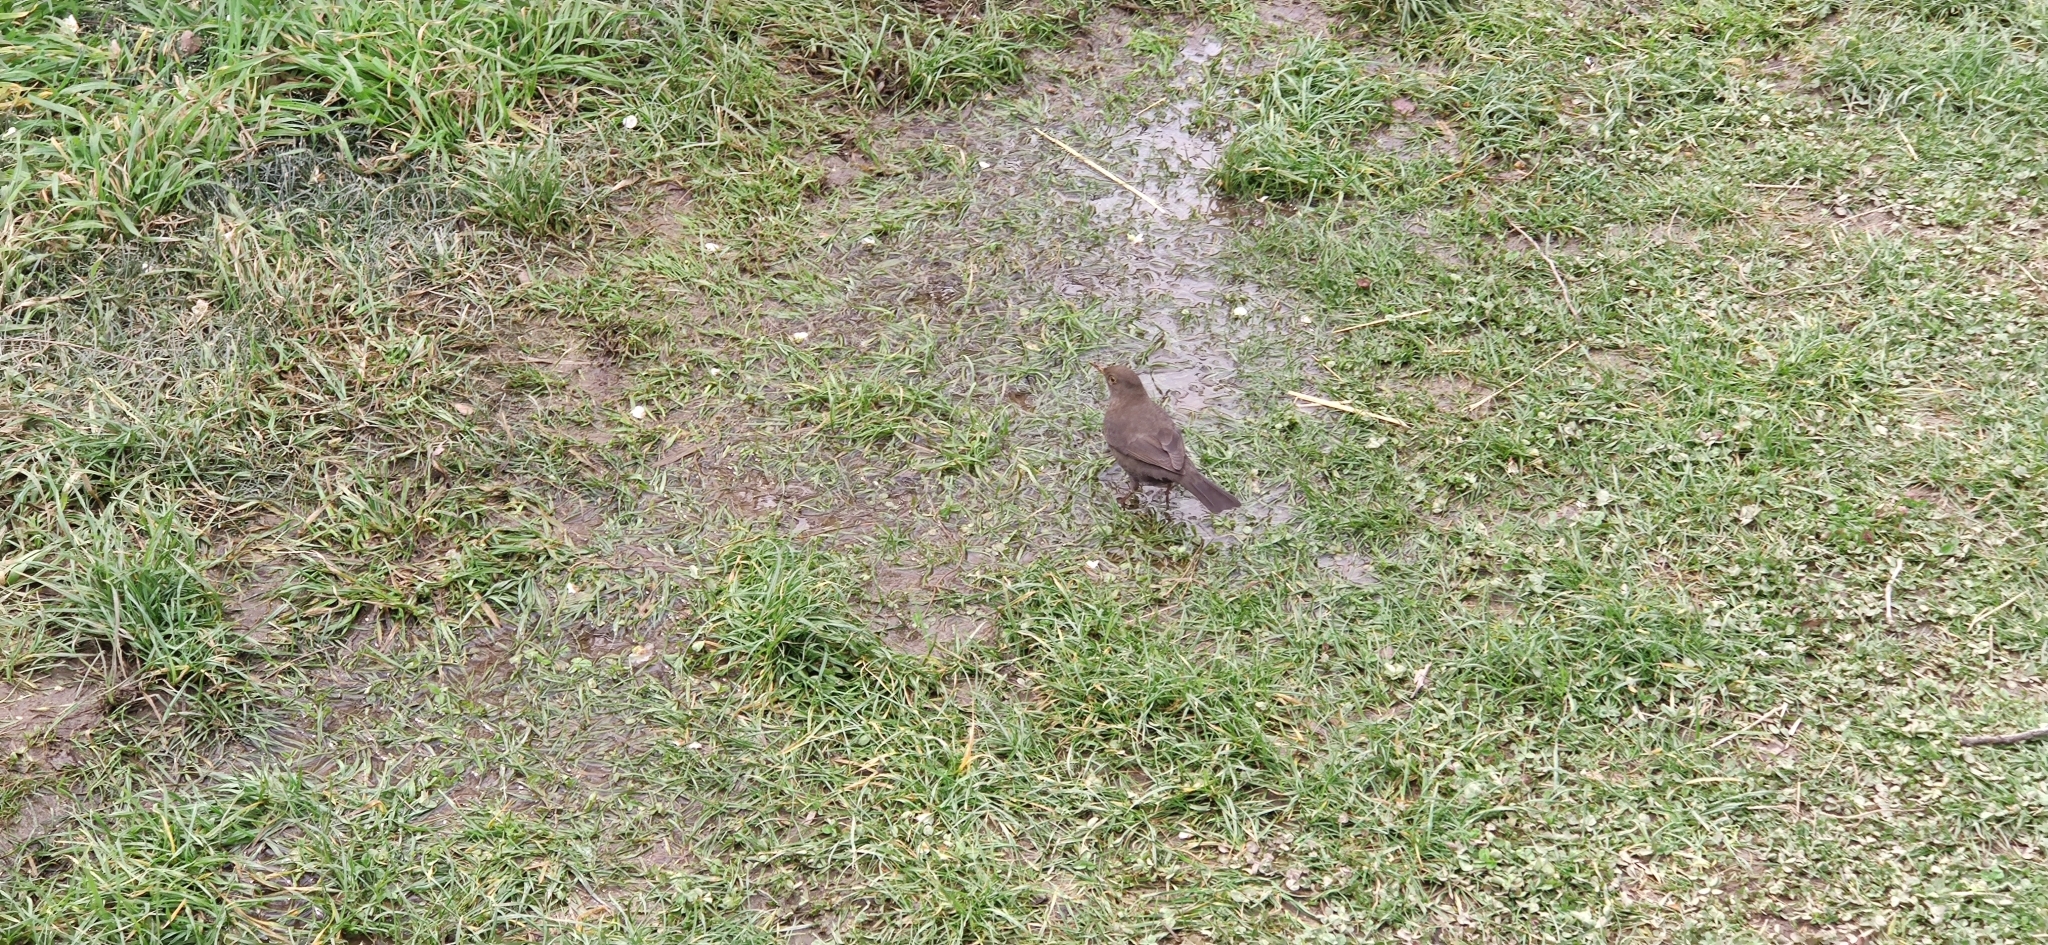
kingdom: Animalia
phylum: Chordata
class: Aves
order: Passeriformes
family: Turdidae
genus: Turdus
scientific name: Turdus merula
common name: Common blackbird
